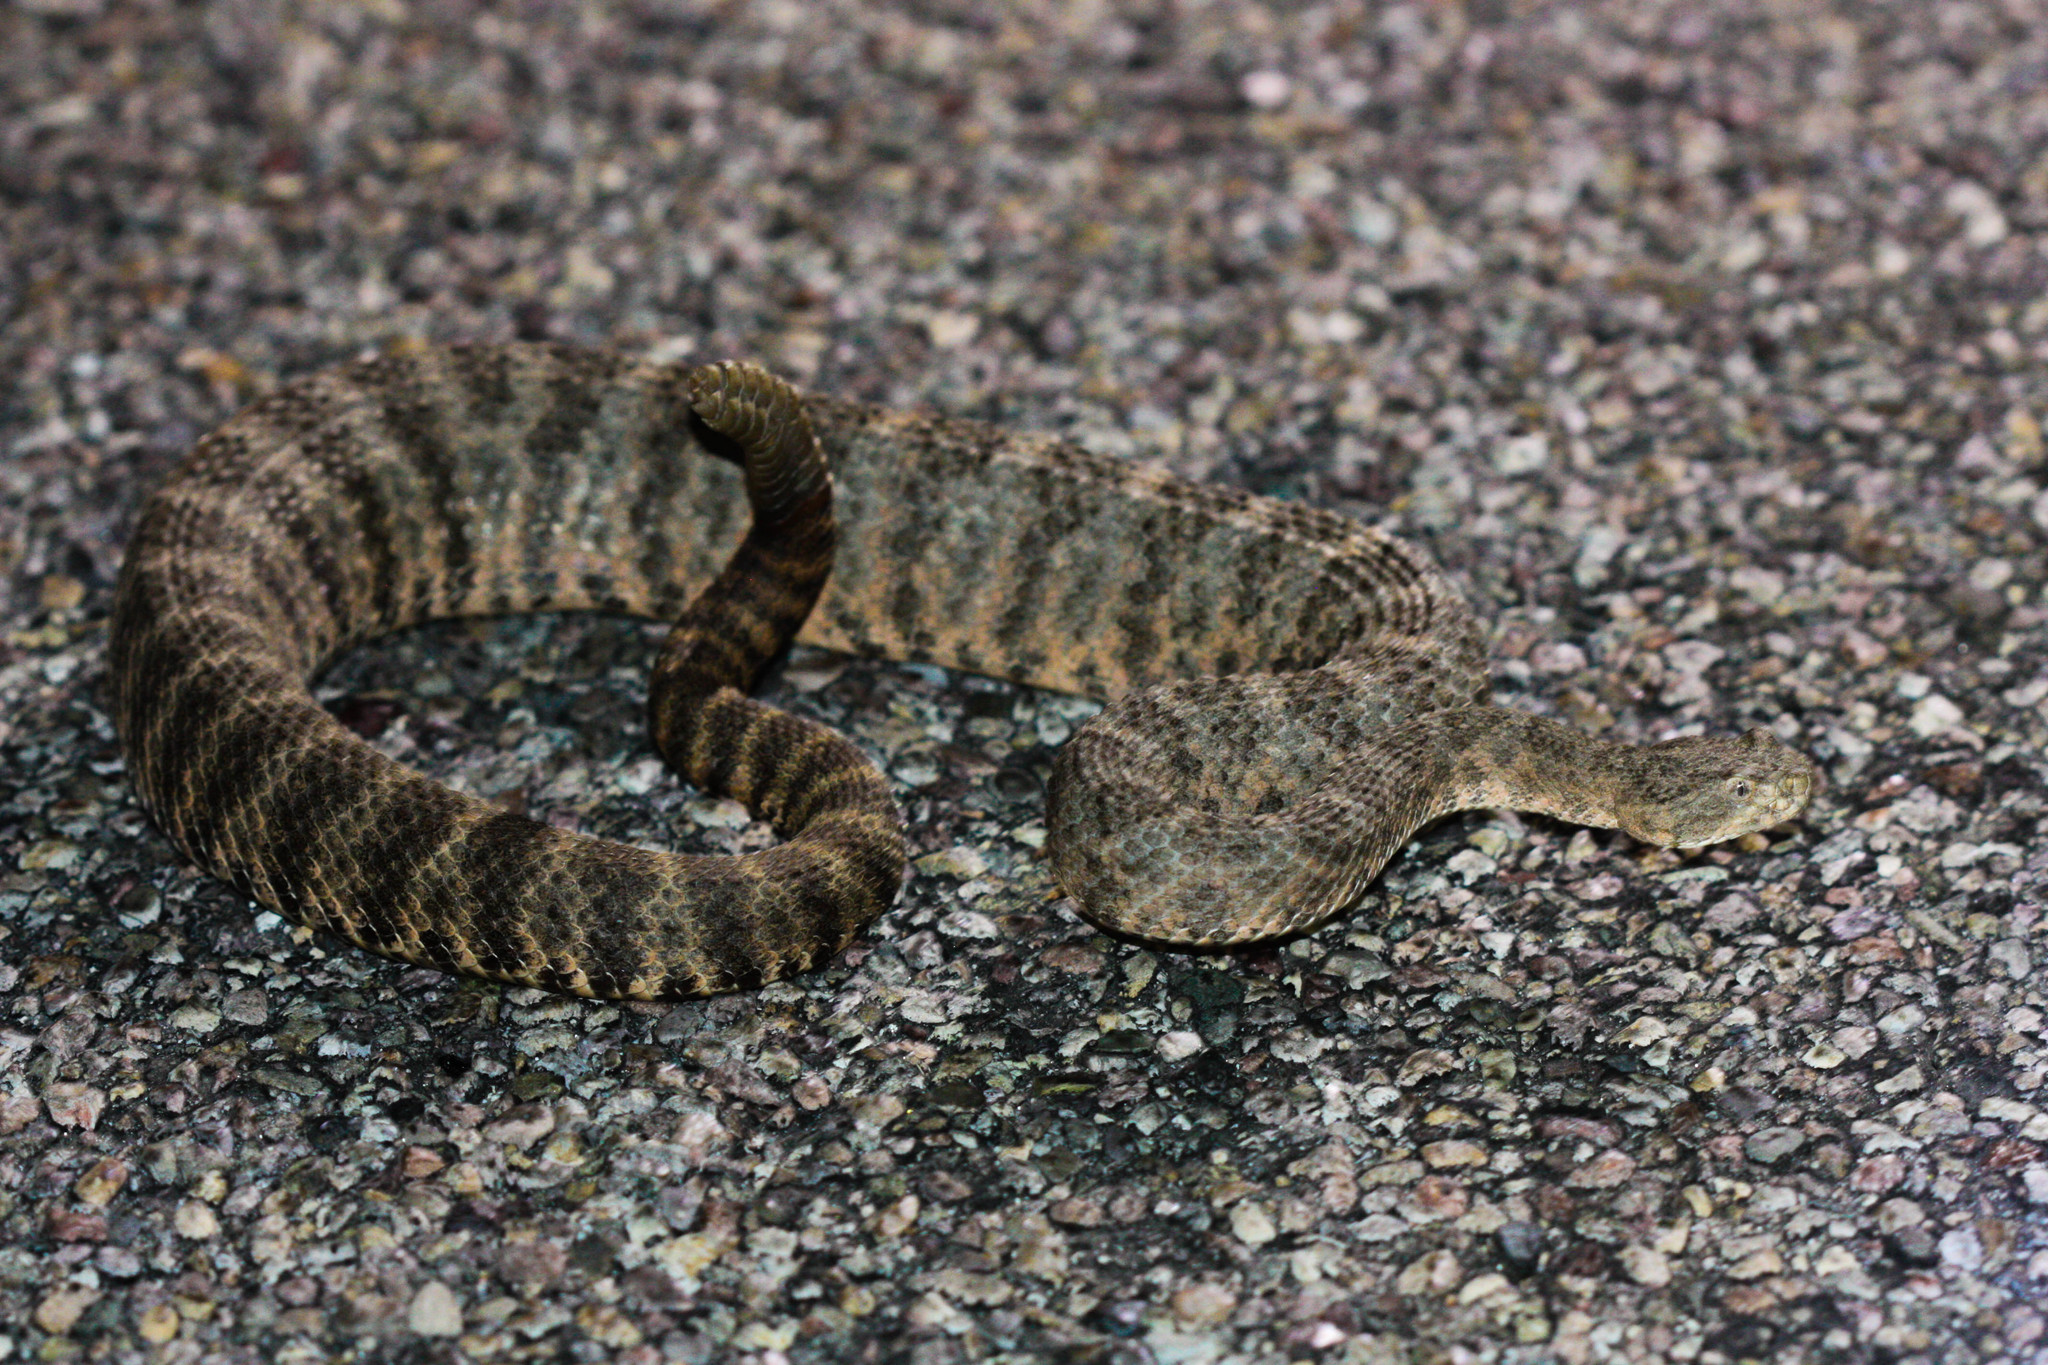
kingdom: Animalia
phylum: Chordata
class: Squamata
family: Viperidae
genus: Crotalus
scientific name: Crotalus tigris
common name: Tiger rattlesnake
